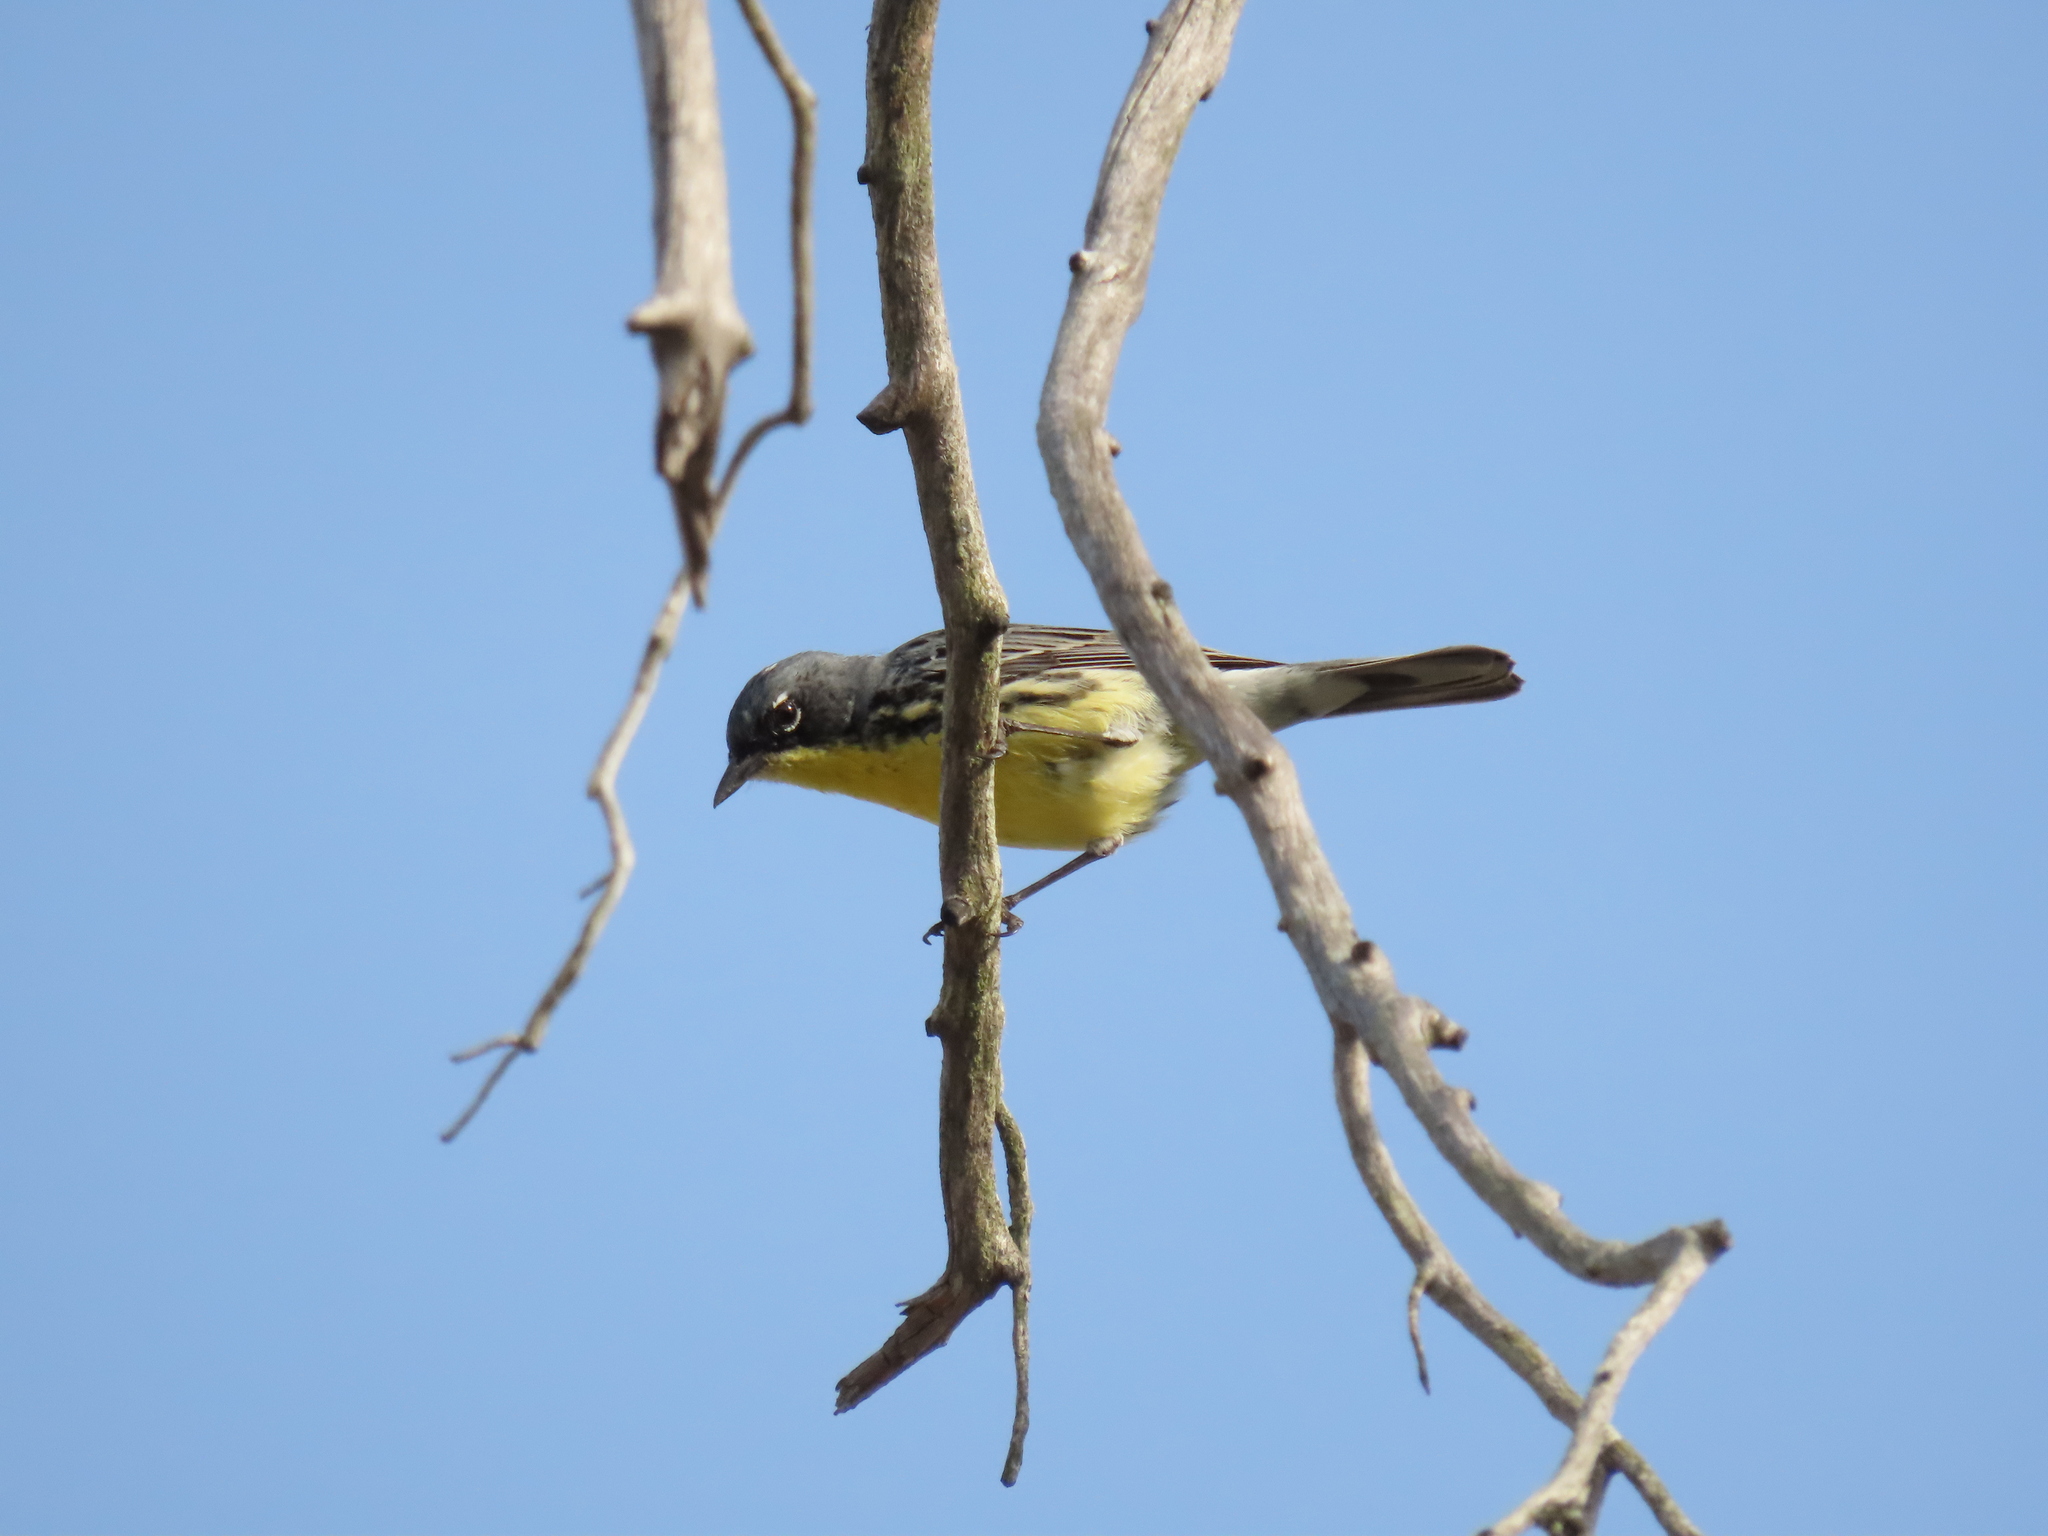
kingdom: Animalia
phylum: Chordata
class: Aves
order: Passeriformes
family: Parulidae
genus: Setophaga
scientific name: Setophaga kirtlandii
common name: Kirtland's warbler
